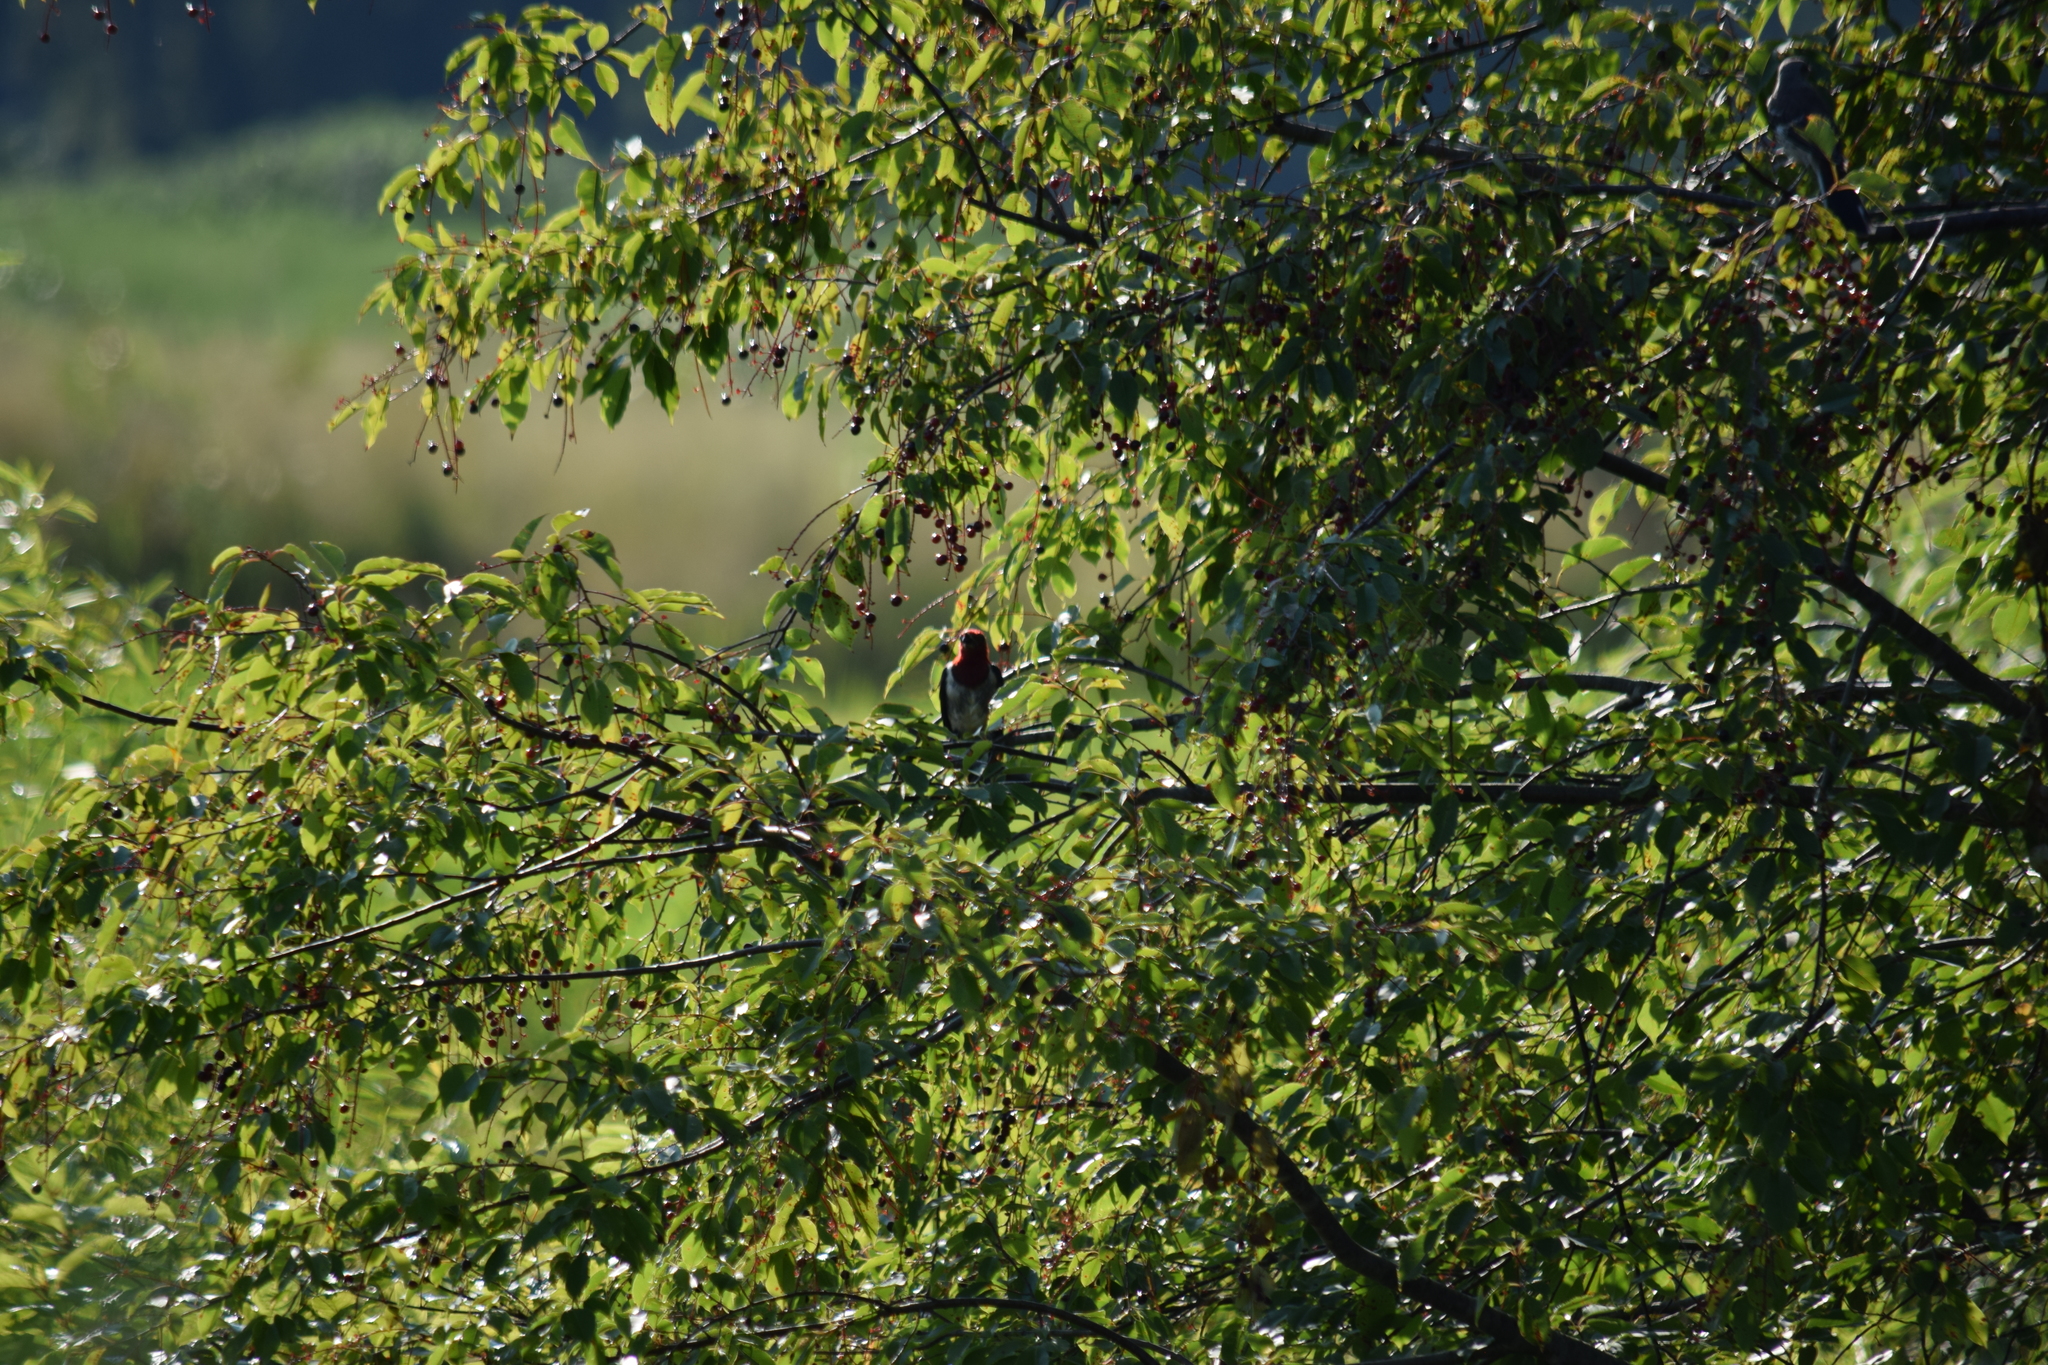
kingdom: Animalia
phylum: Chordata
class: Aves
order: Piciformes
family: Picidae
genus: Melanerpes
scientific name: Melanerpes erythrocephalus
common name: Red-headed woodpecker
